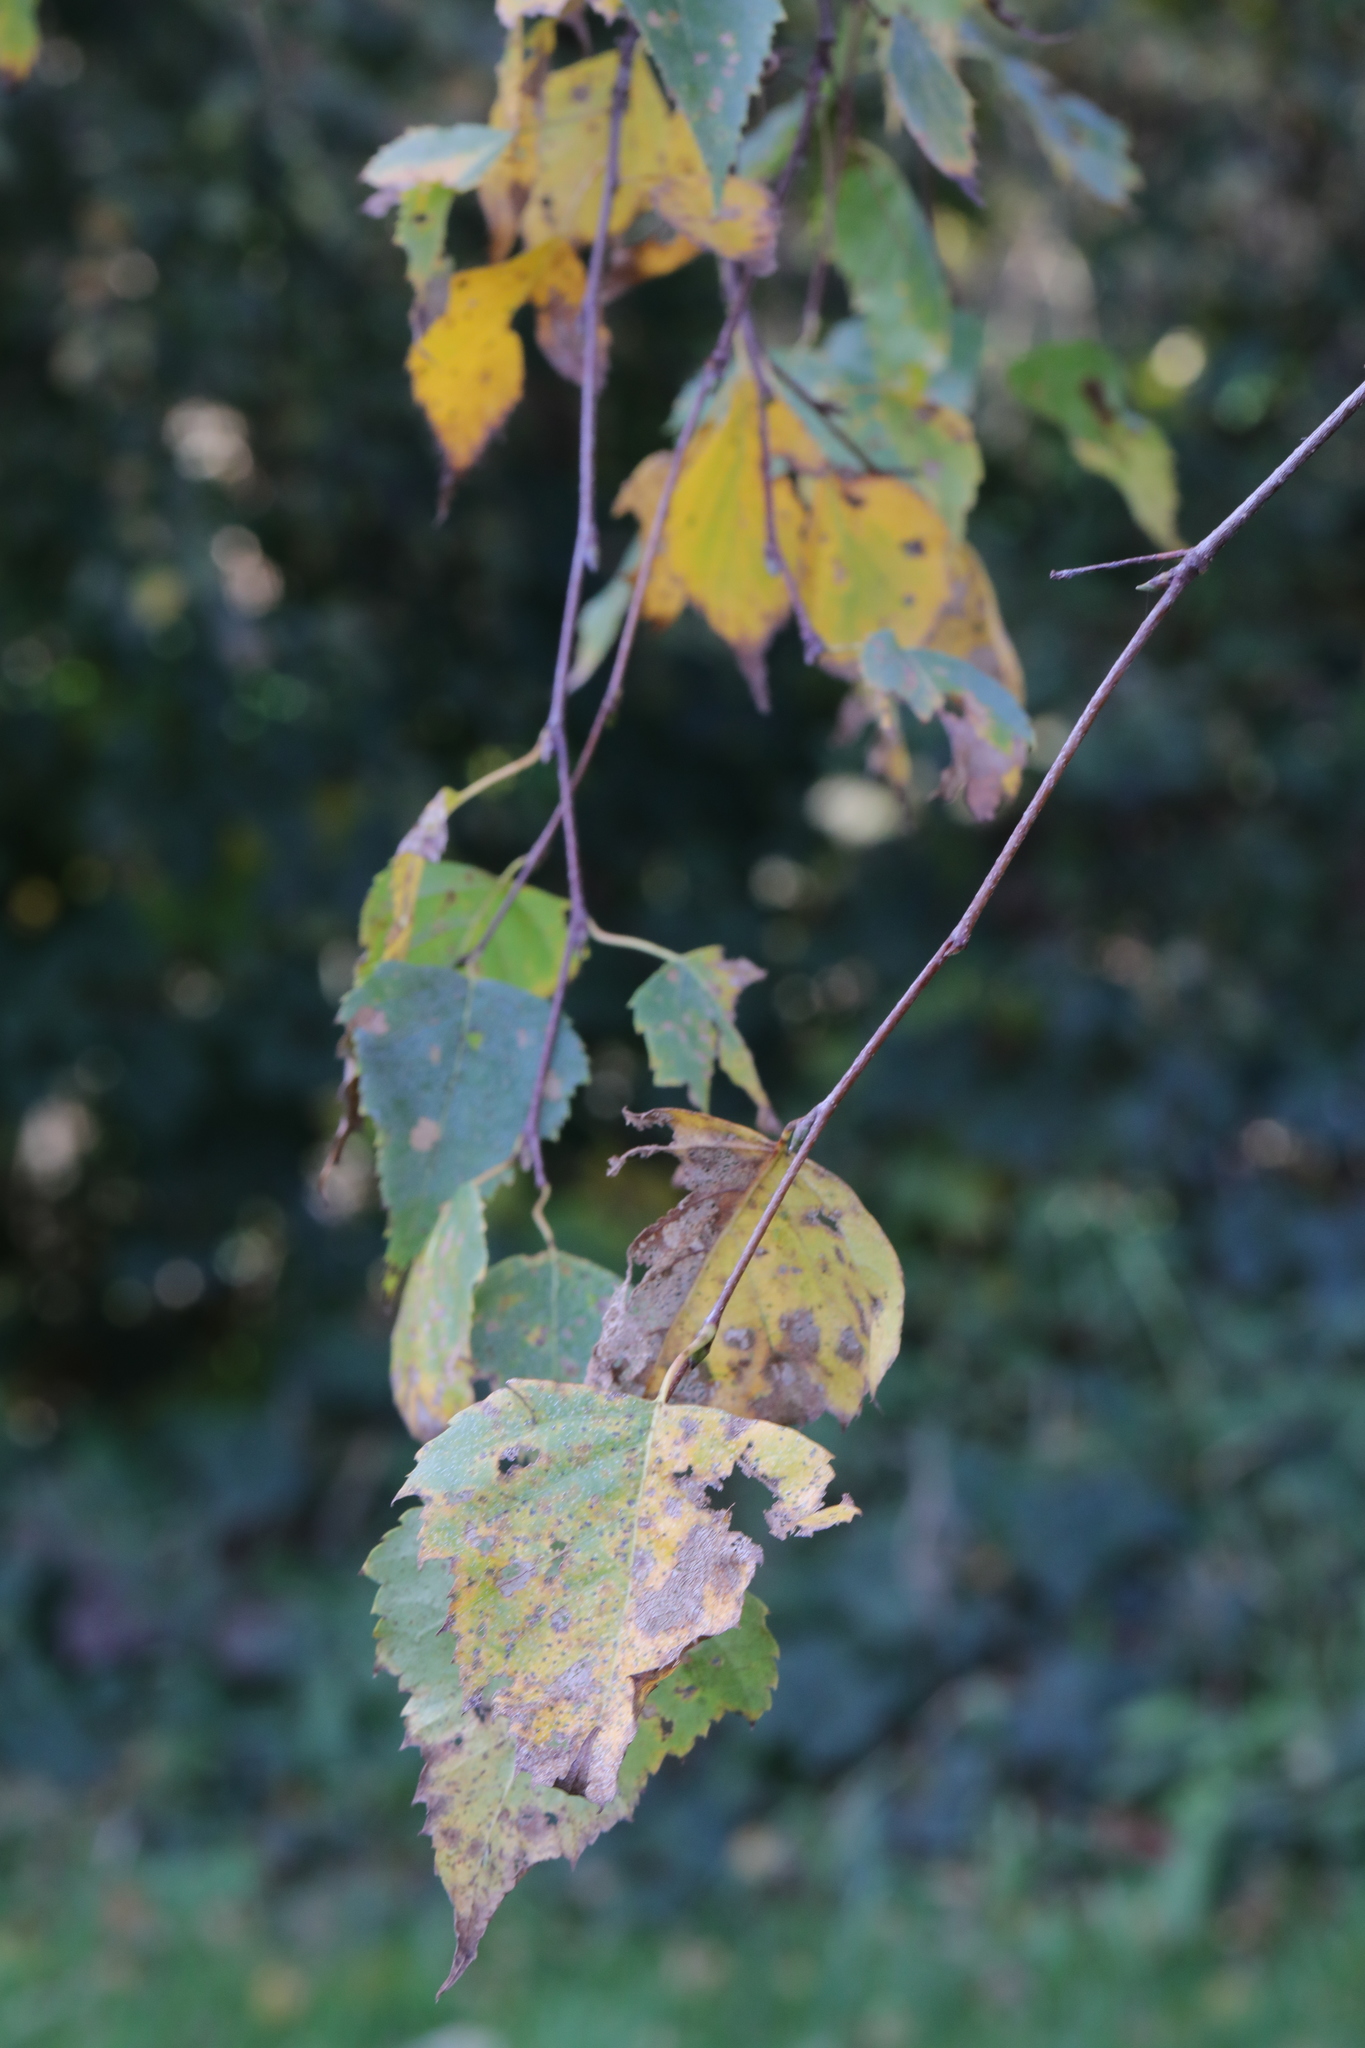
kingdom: Plantae
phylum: Tracheophyta
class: Magnoliopsida
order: Fagales
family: Betulaceae
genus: Betula
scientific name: Betula pendula
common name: Silver birch
